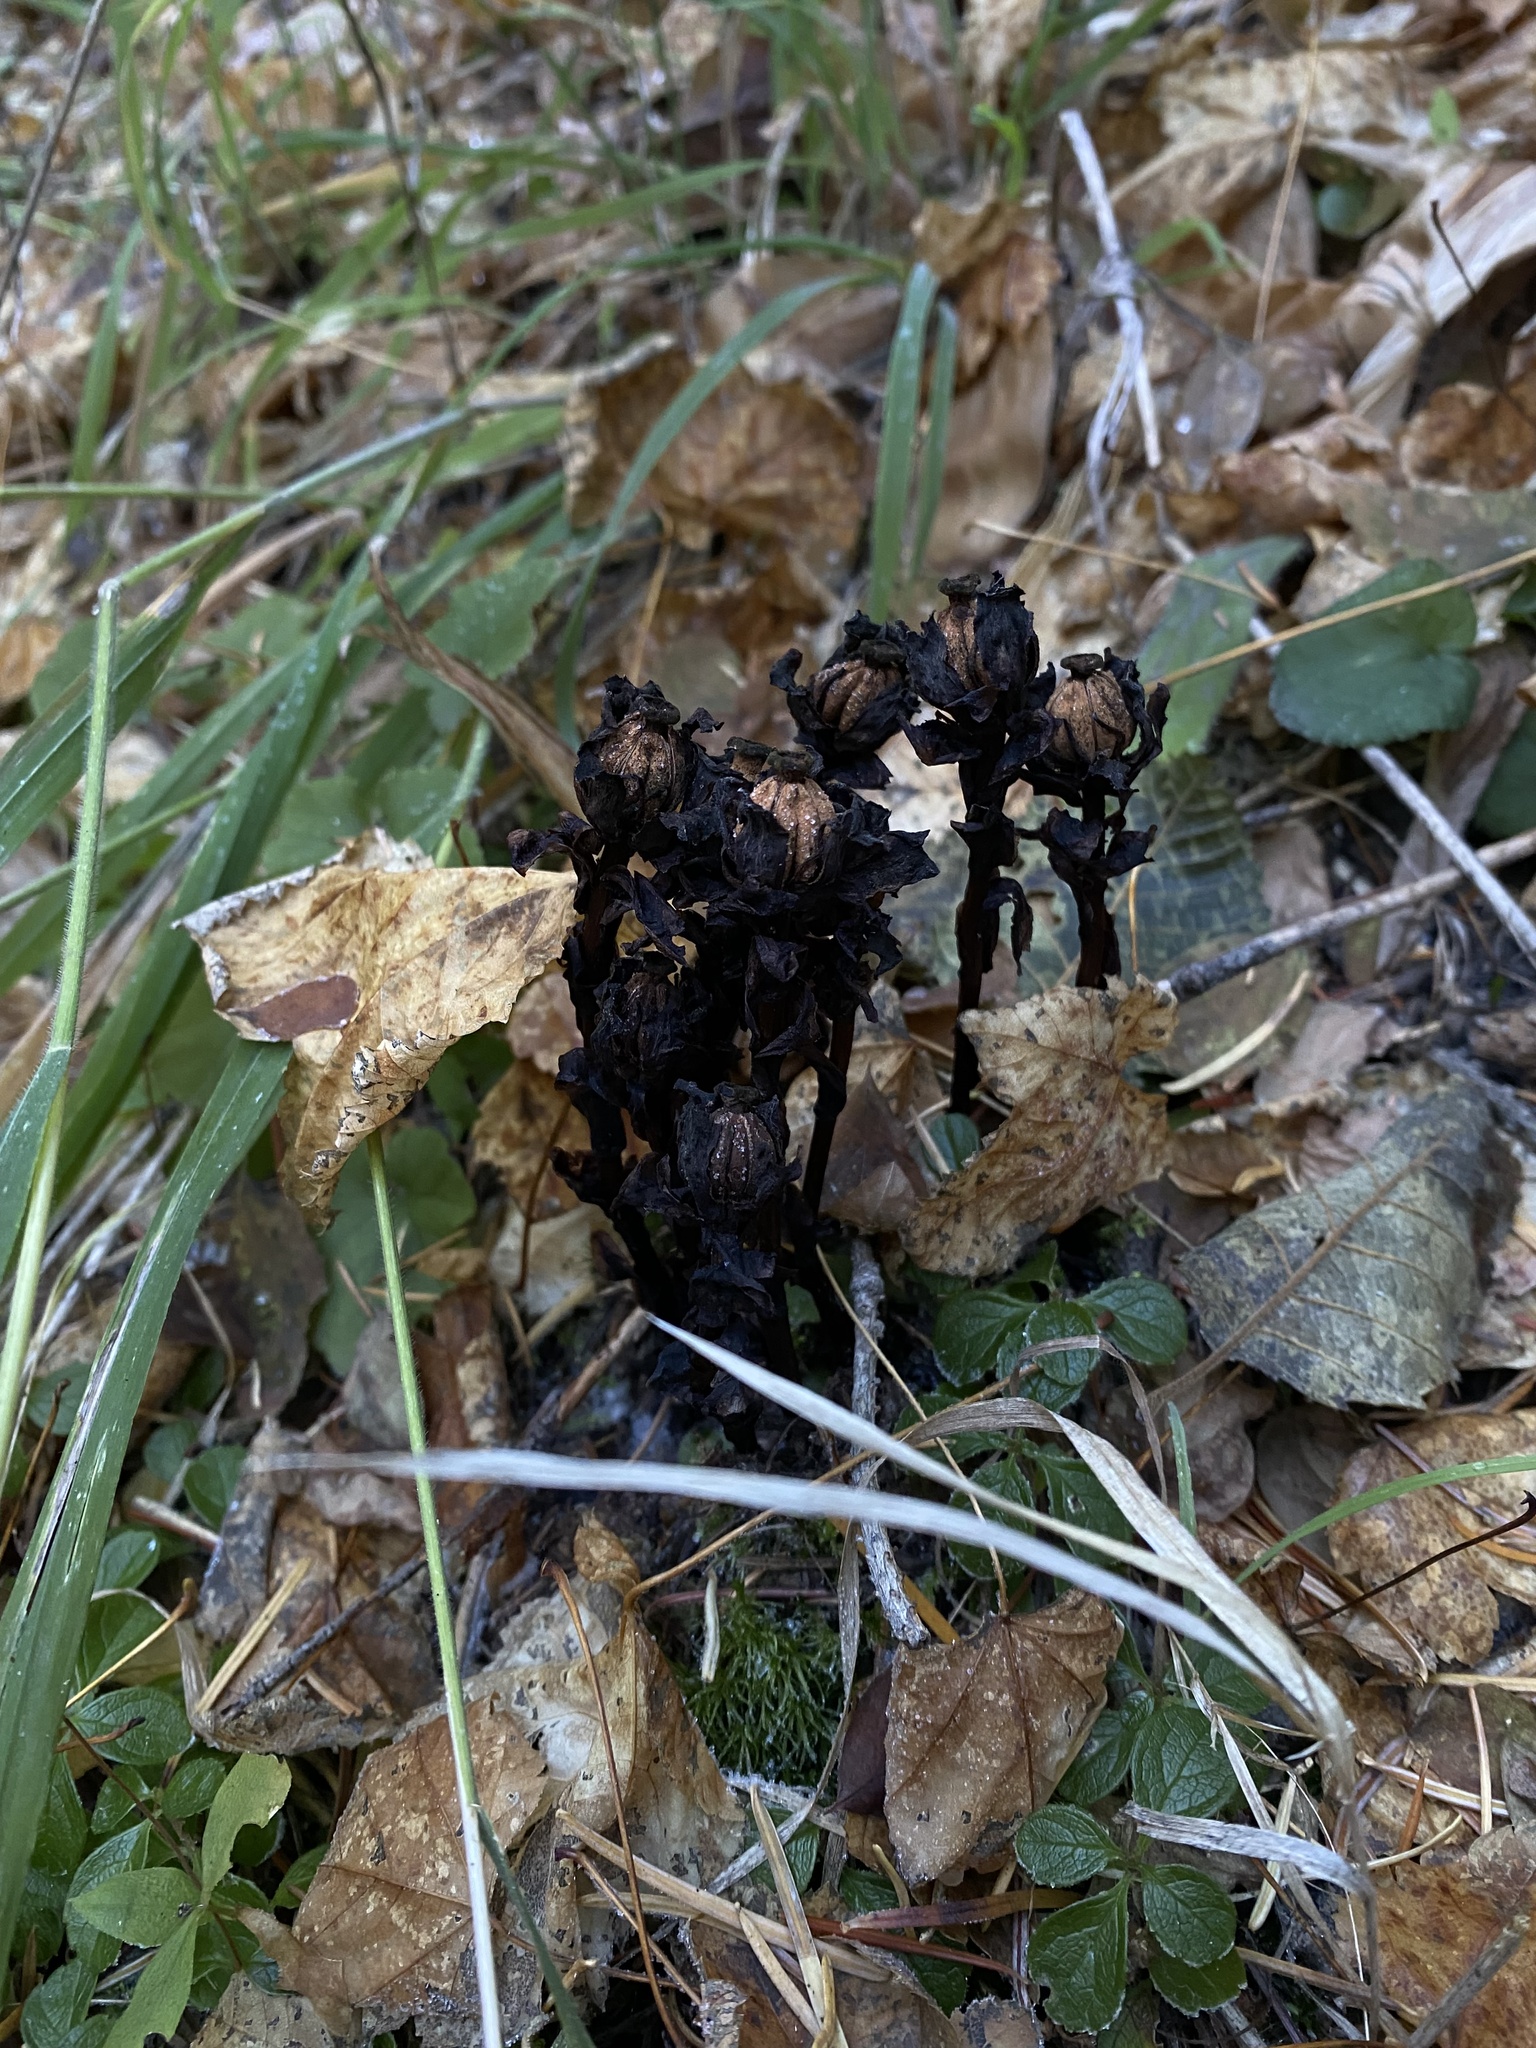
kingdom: Plantae
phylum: Tracheophyta
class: Magnoliopsida
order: Ericales
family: Ericaceae
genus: Monotropa
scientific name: Monotropa uniflora
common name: Convulsion root
